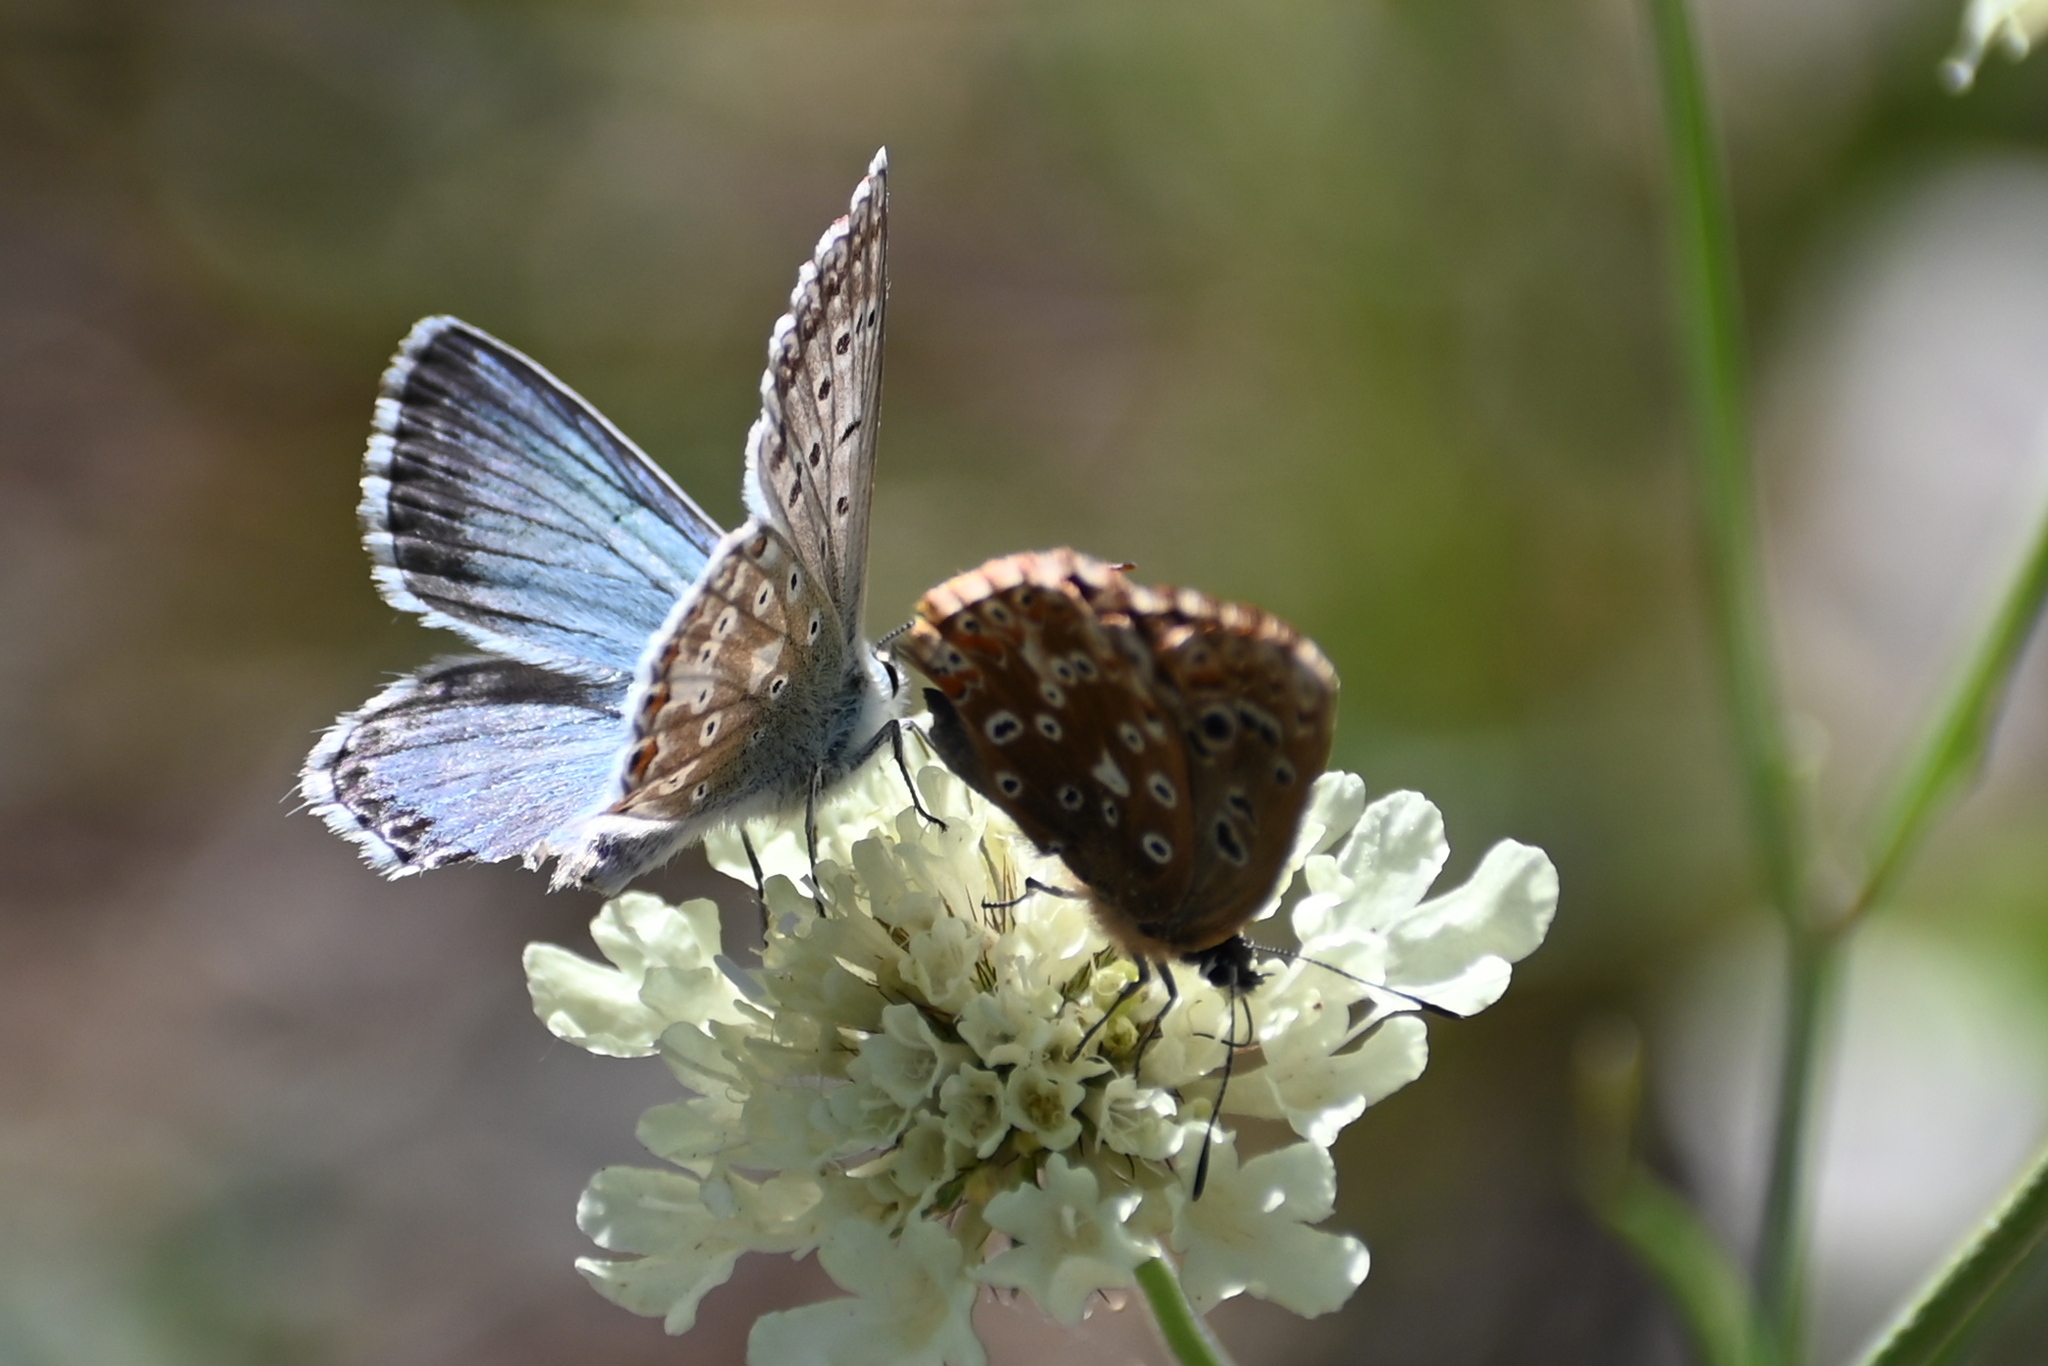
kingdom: Animalia
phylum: Arthropoda
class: Insecta
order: Lepidoptera
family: Lycaenidae
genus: Lysandra
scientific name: Lysandra coridon
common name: Chalkhill blue
